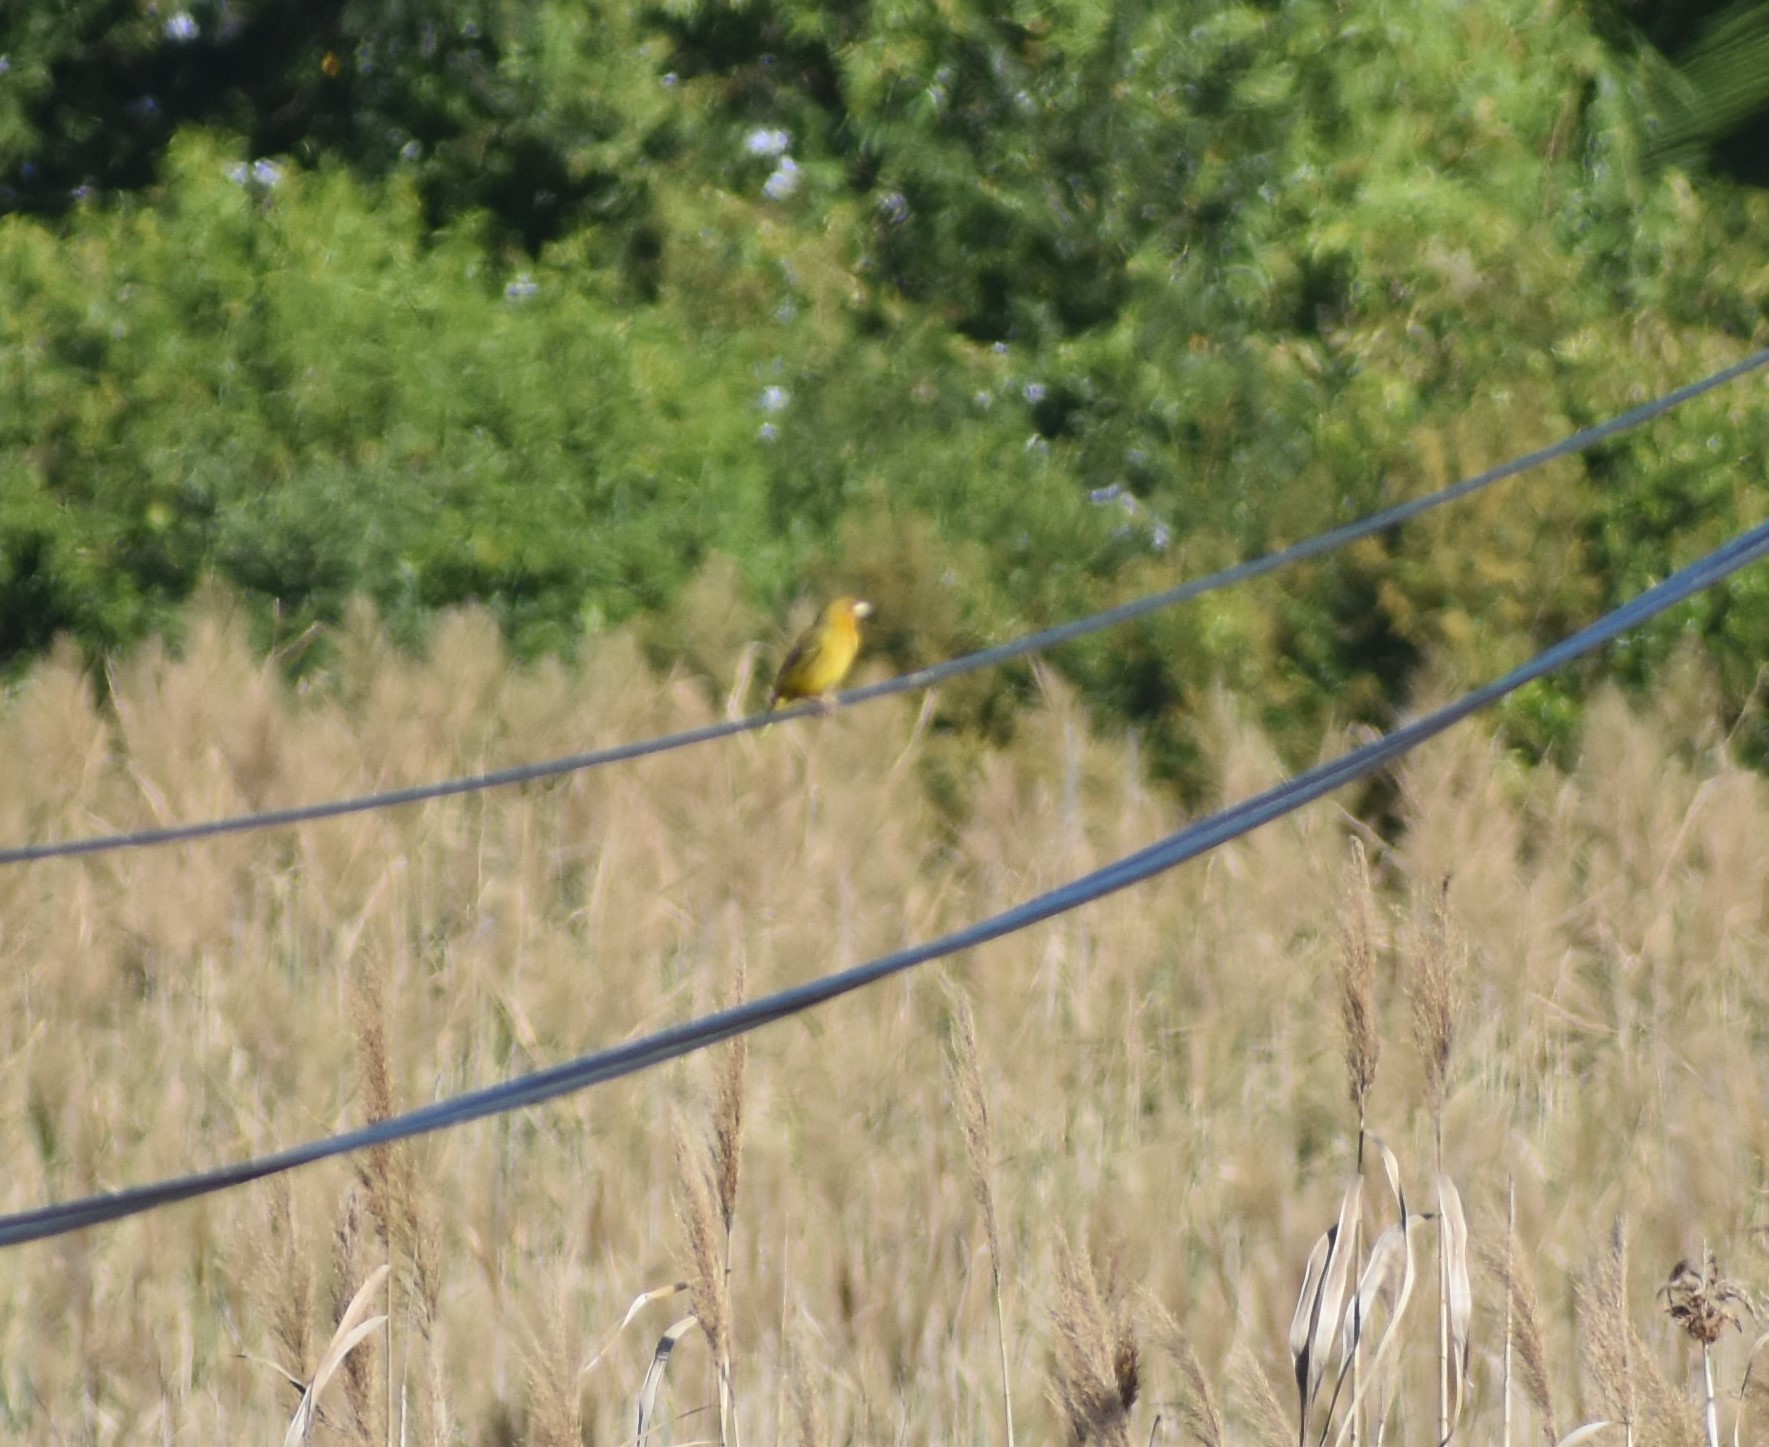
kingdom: Animalia
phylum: Chordata
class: Aves
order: Passeriformes
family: Ploceidae
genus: Ploceus
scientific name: Ploceus capensis
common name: Cape weaver
